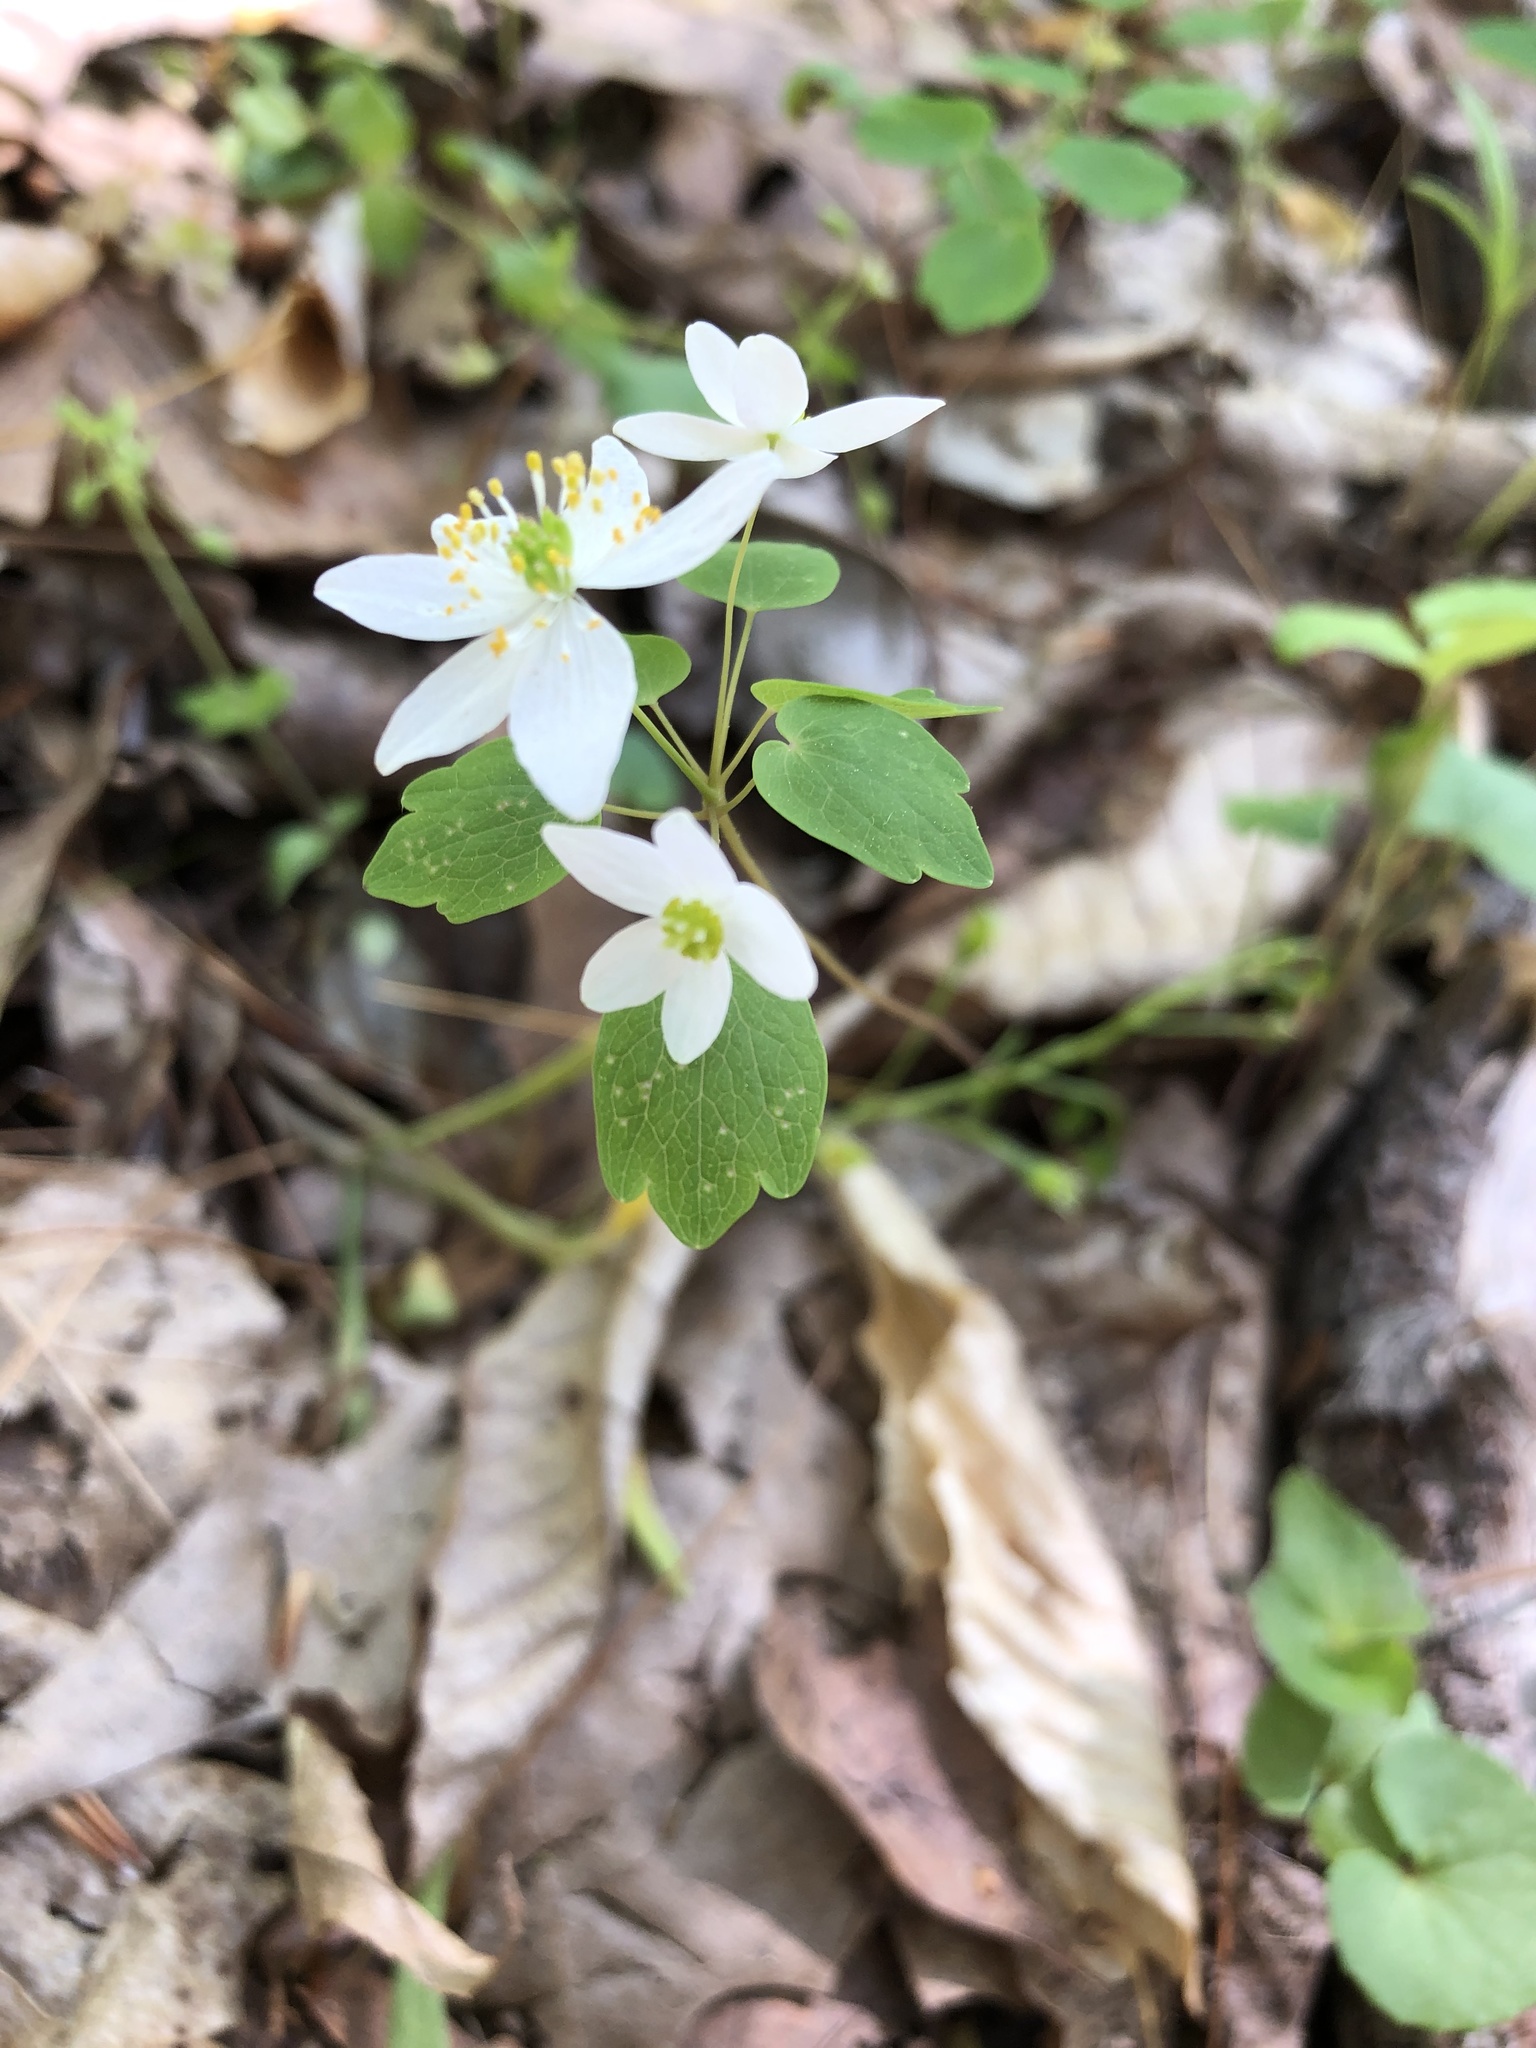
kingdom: Plantae
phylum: Tracheophyta
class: Magnoliopsida
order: Ranunculales
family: Ranunculaceae
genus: Thalictrum
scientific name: Thalictrum thalictroides
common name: Rue-anemone
